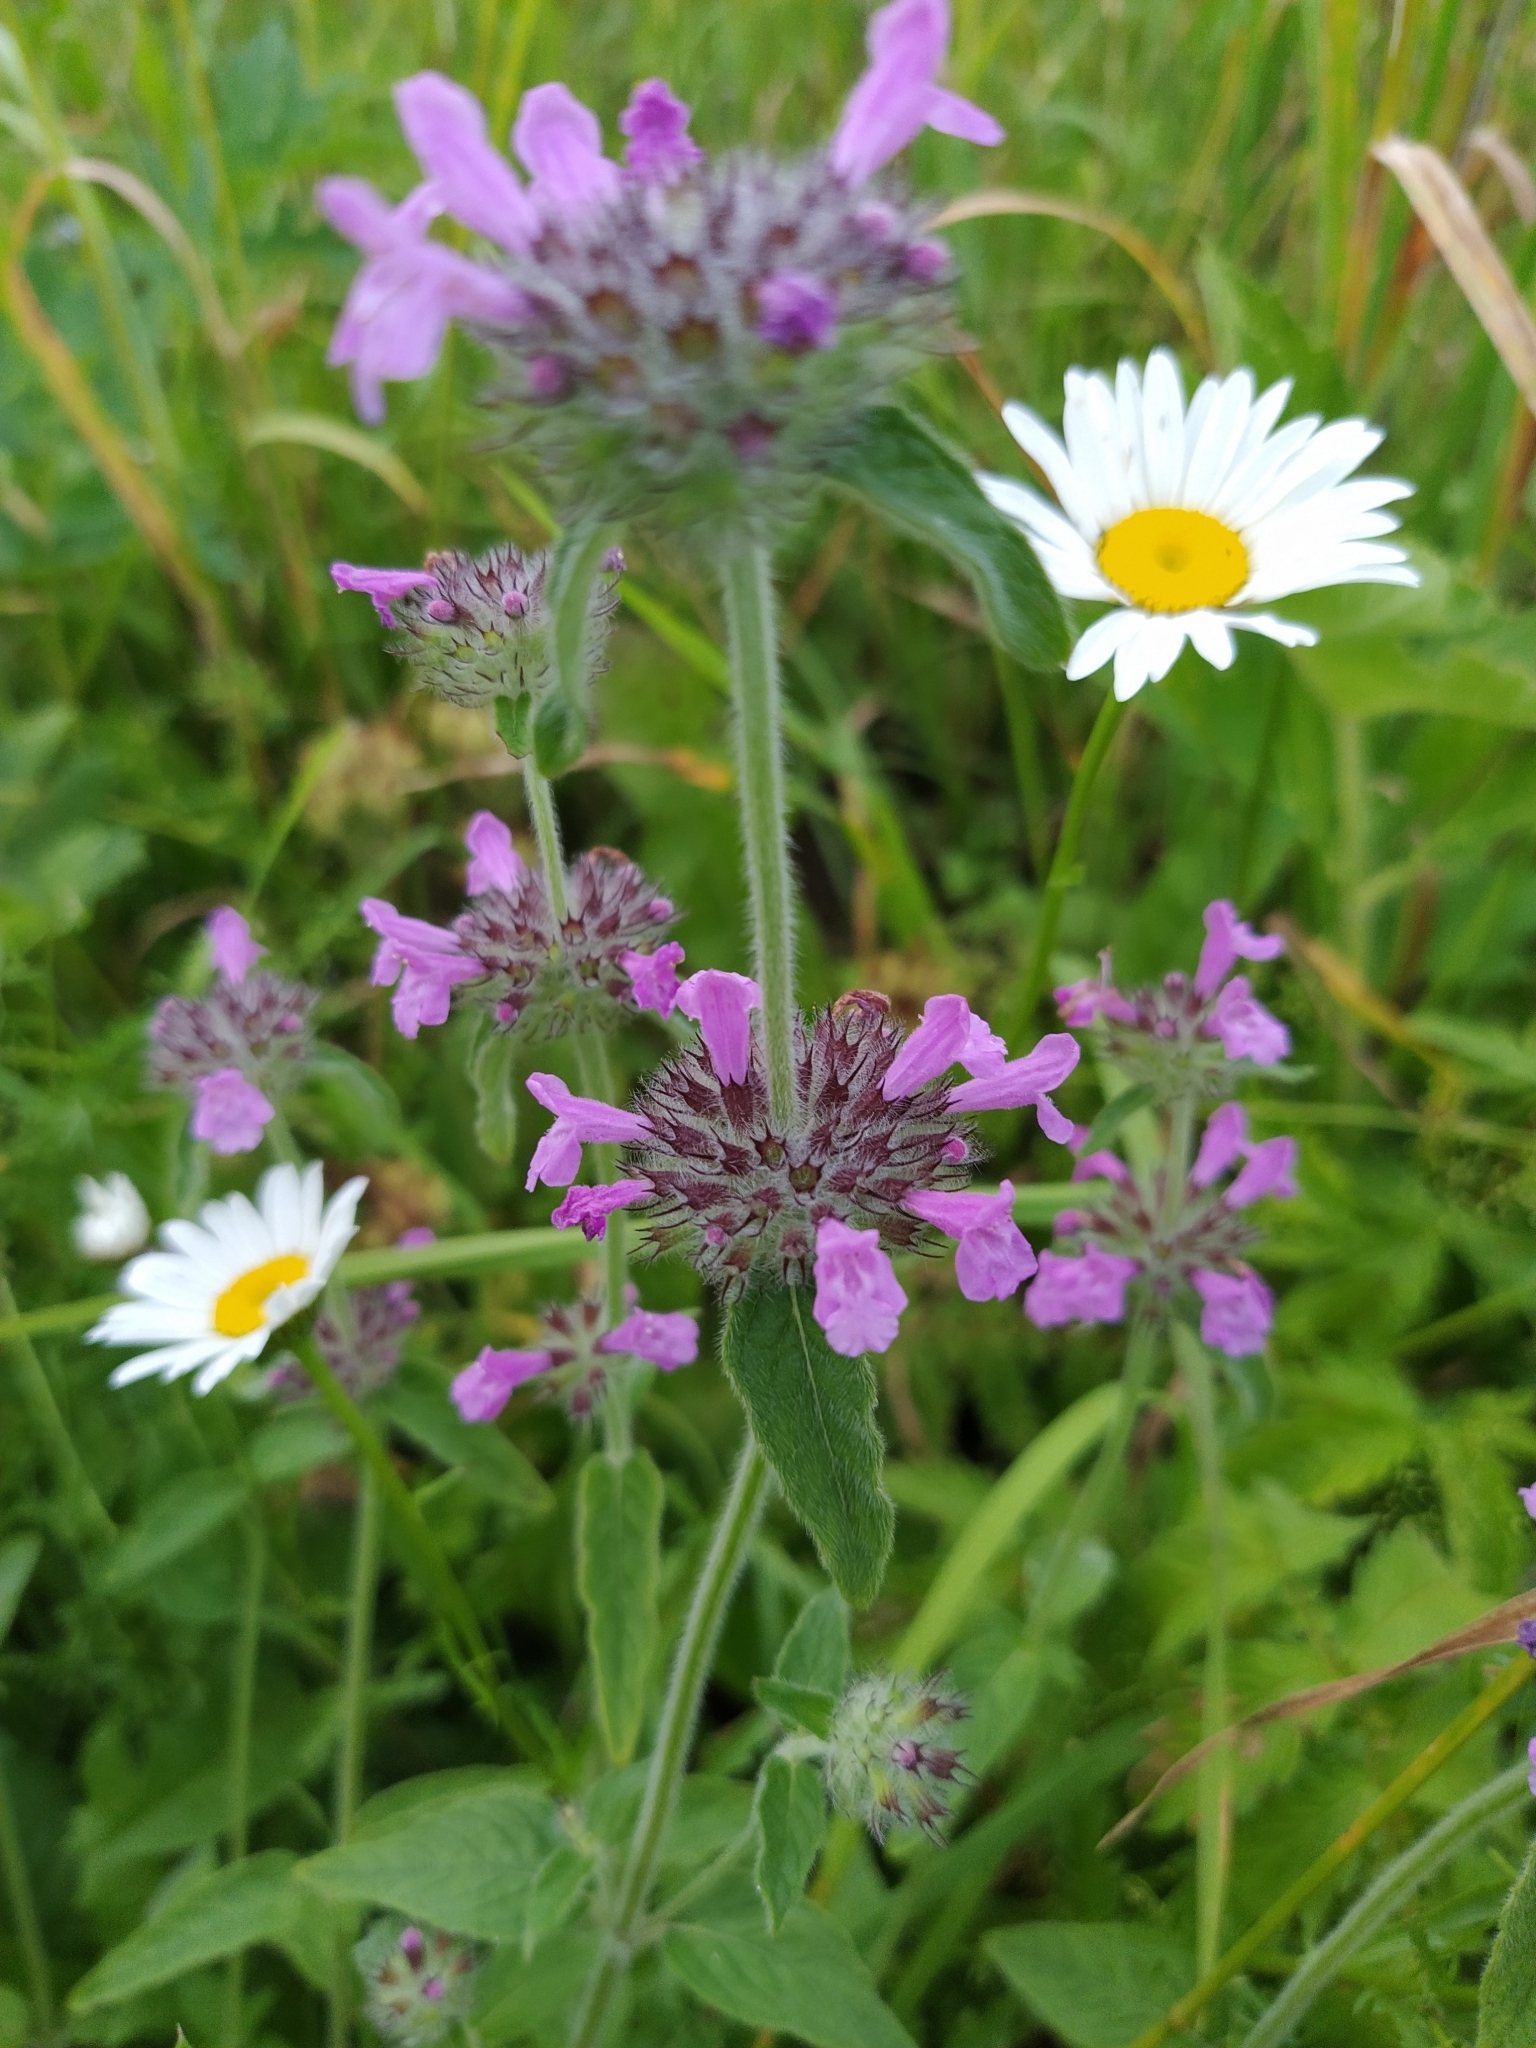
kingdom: Plantae
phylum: Tracheophyta
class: Magnoliopsida
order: Lamiales
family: Lamiaceae
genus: Clinopodium
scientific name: Clinopodium vulgare
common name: Wild basil
